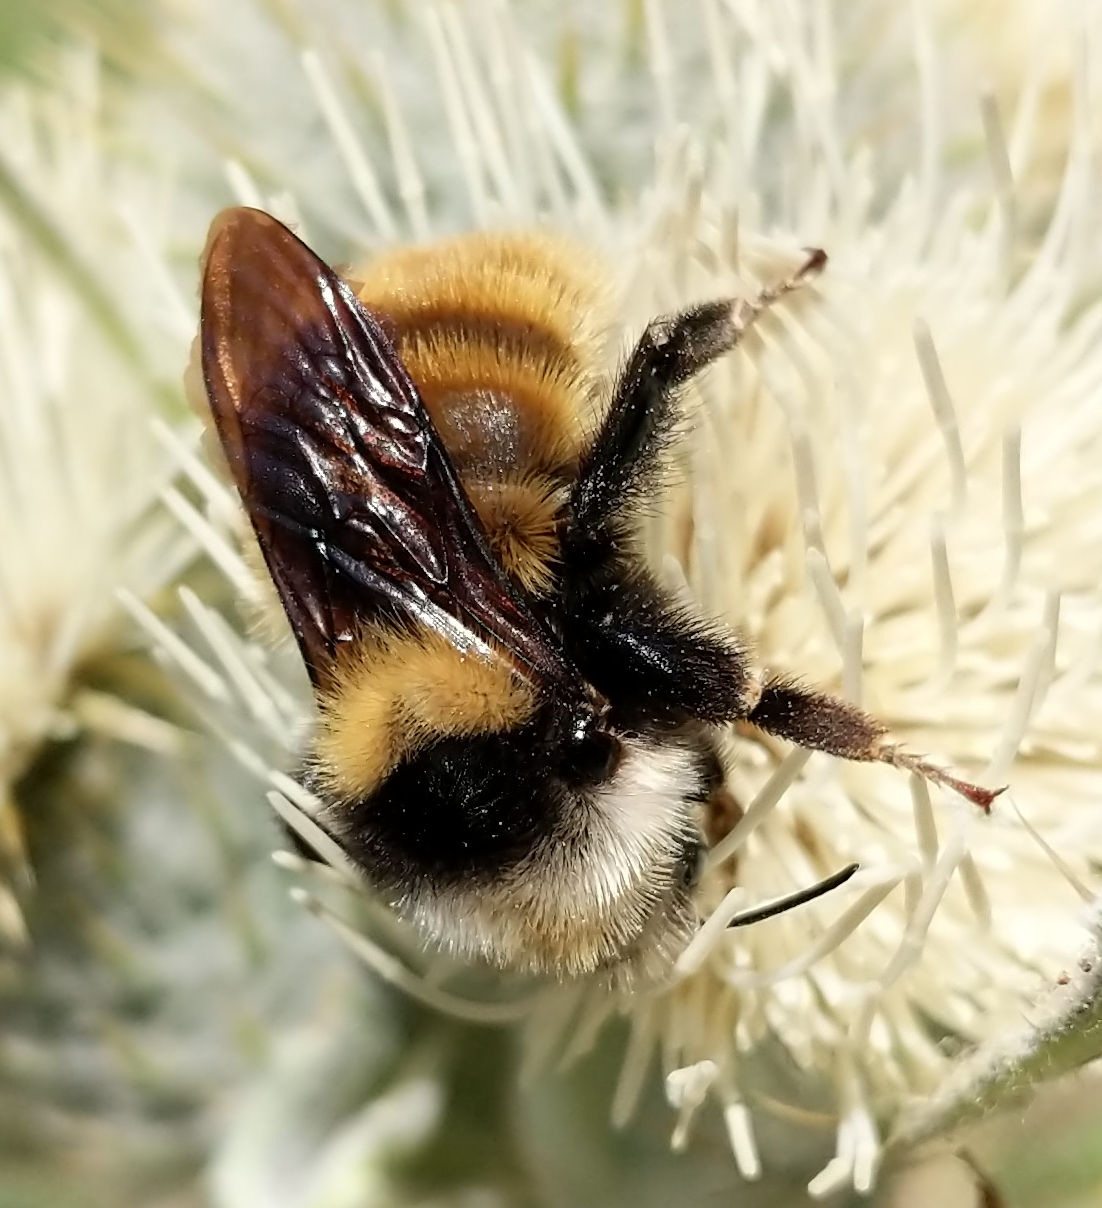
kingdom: Animalia
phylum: Arthropoda
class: Insecta
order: Hymenoptera
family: Apidae
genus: Bombus
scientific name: Bombus appositus
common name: White-shouldered bumble bee
